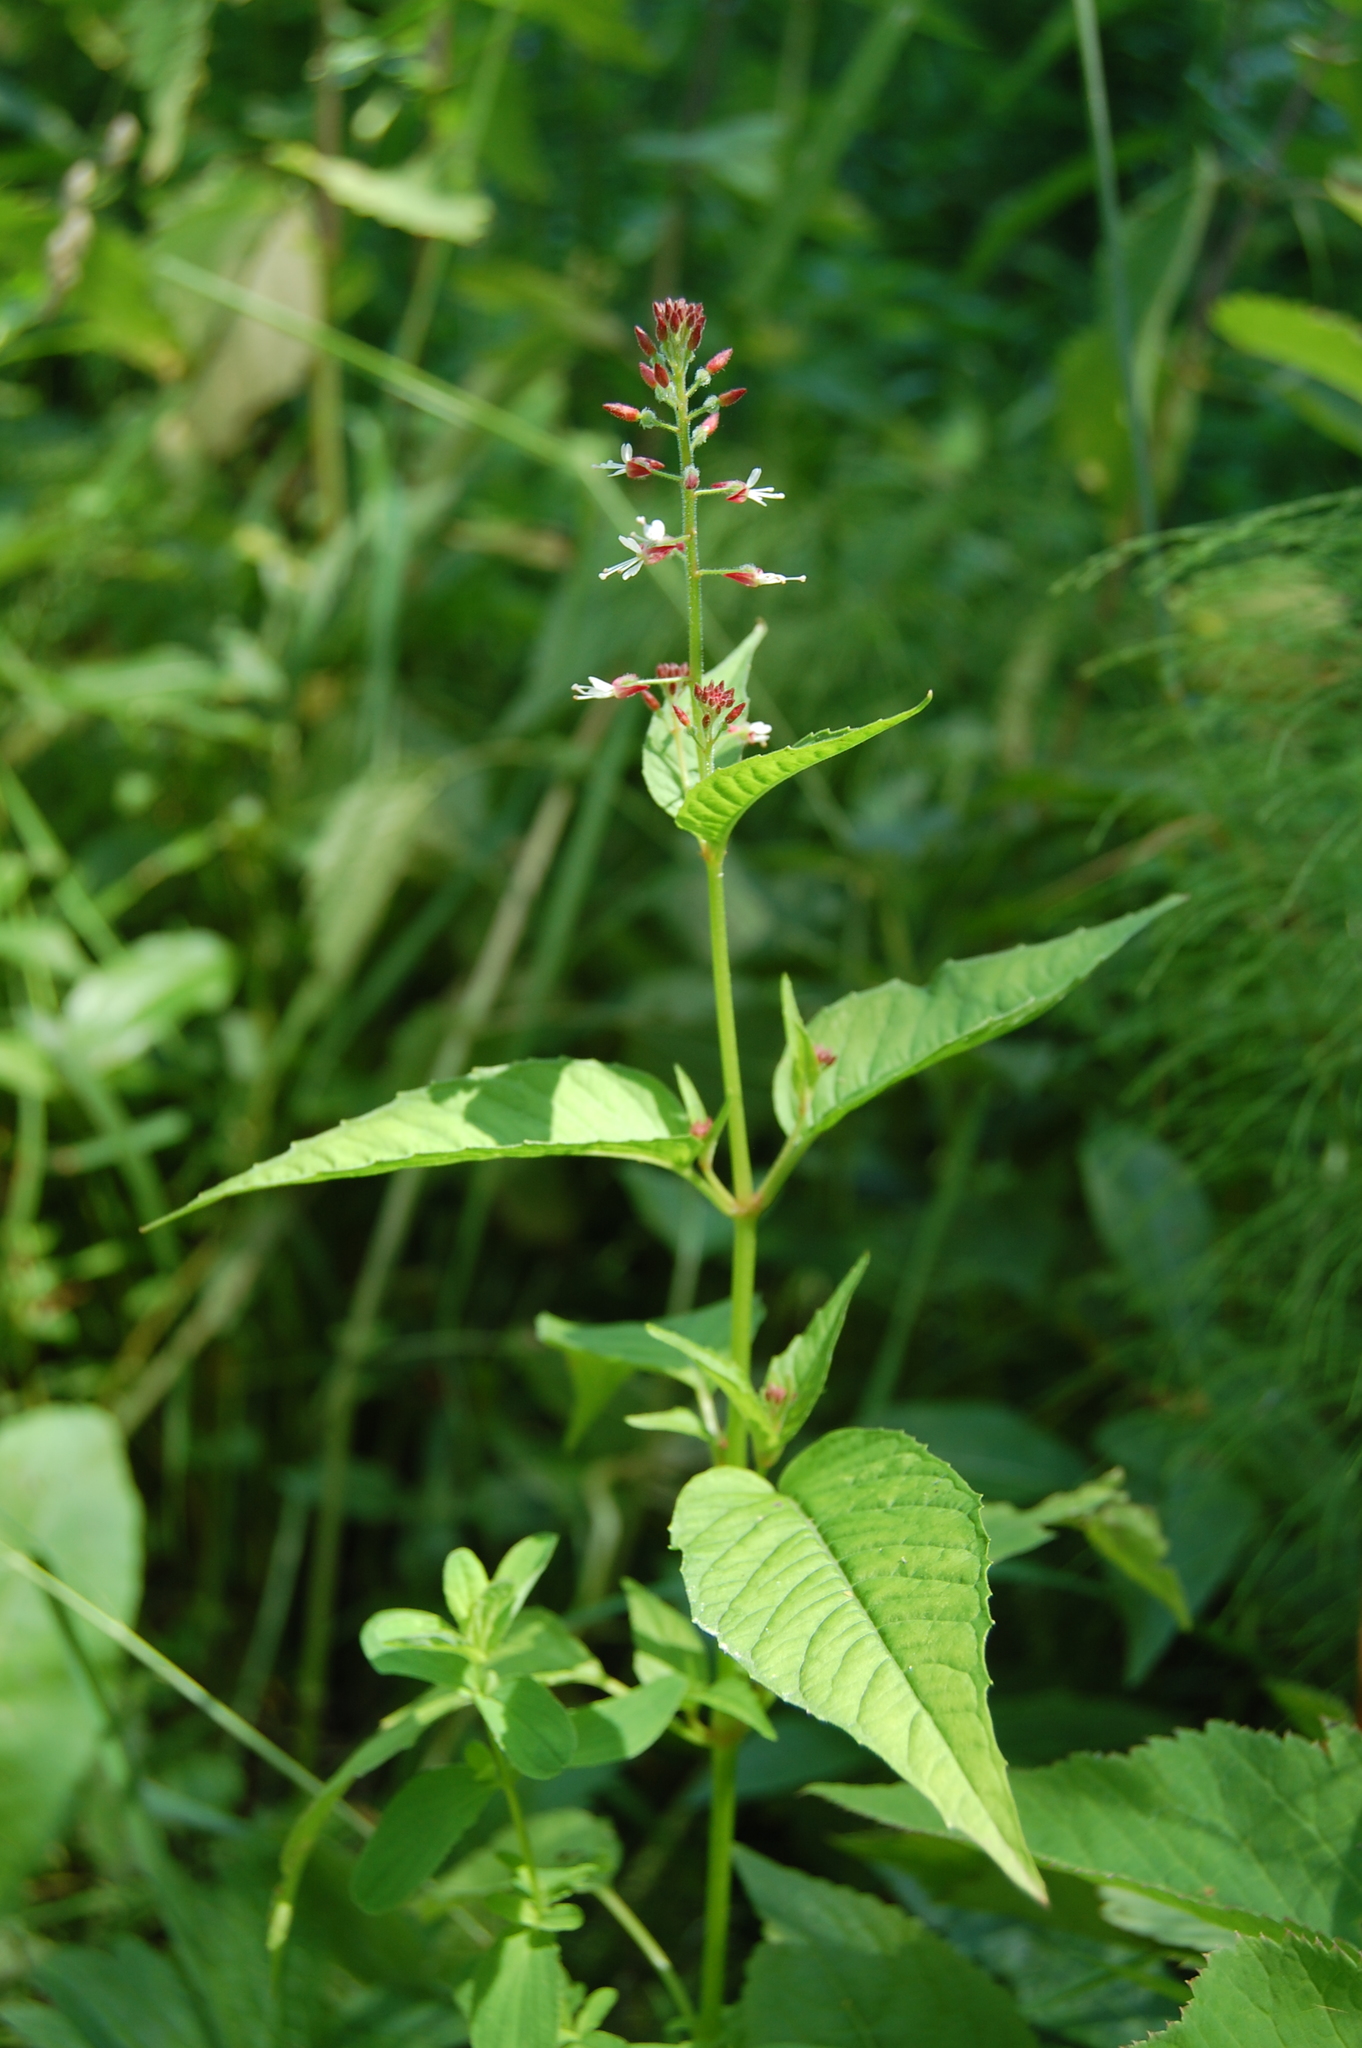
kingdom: Plantae
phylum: Tracheophyta
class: Magnoliopsida
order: Myrtales
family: Onagraceae
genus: Circaea
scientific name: Circaea lutetiana
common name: Enchanter's-nightshade
